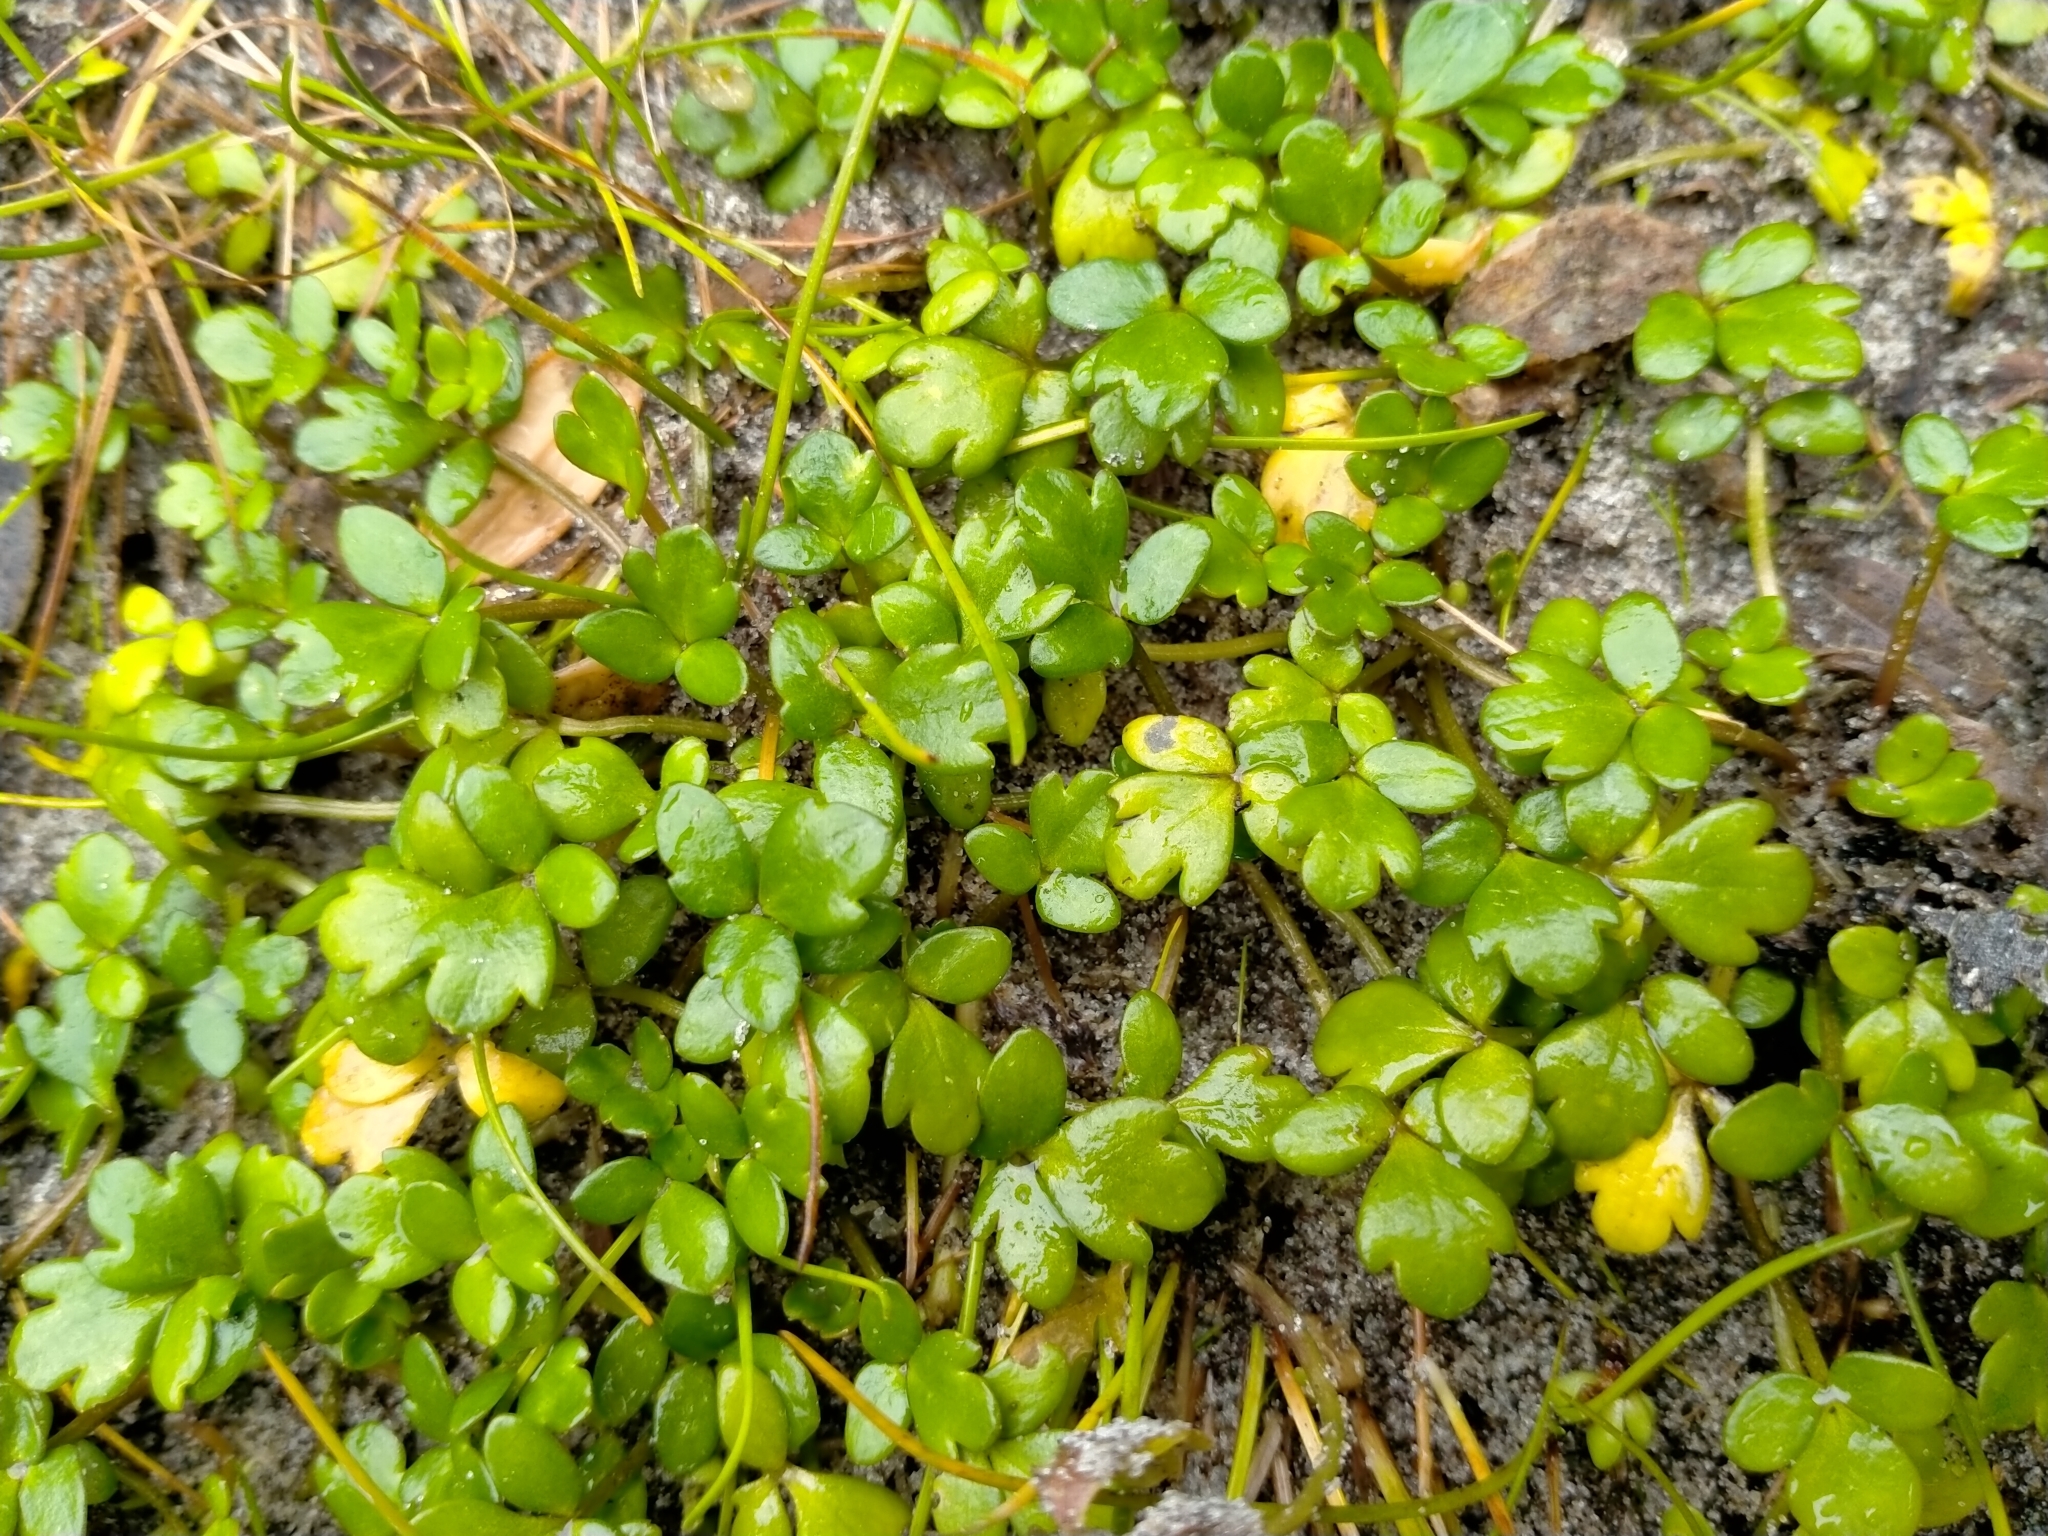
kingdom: Plantae
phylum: Tracheophyta
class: Magnoliopsida
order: Ranunculales
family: Ranunculaceae
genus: Ranunculus
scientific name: Ranunculus acaulis
